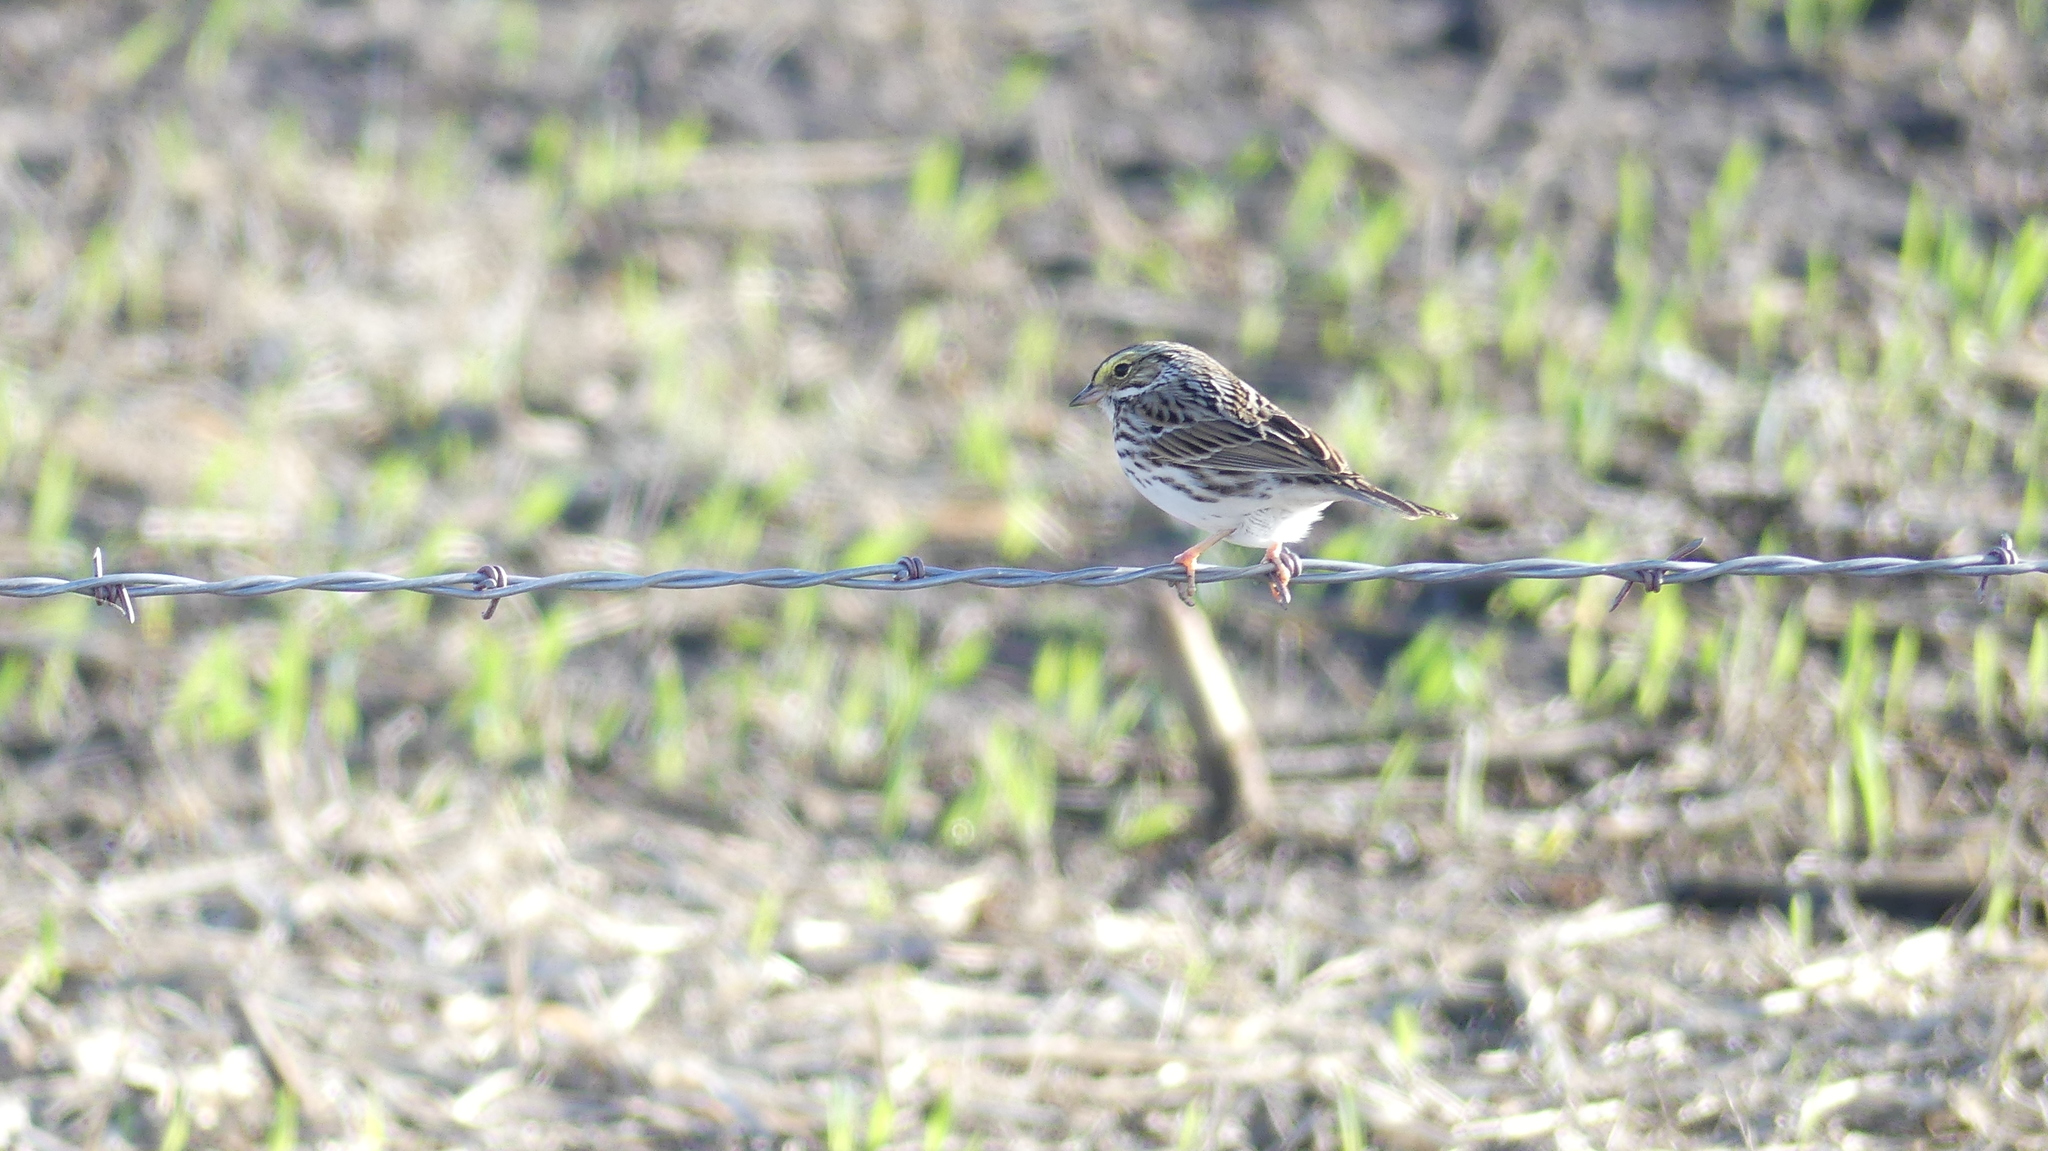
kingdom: Animalia
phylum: Chordata
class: Aves
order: Passeriformes
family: Passerellidae
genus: Passerculus
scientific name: Passerculus sandwichensis
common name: Savannah sparrow
